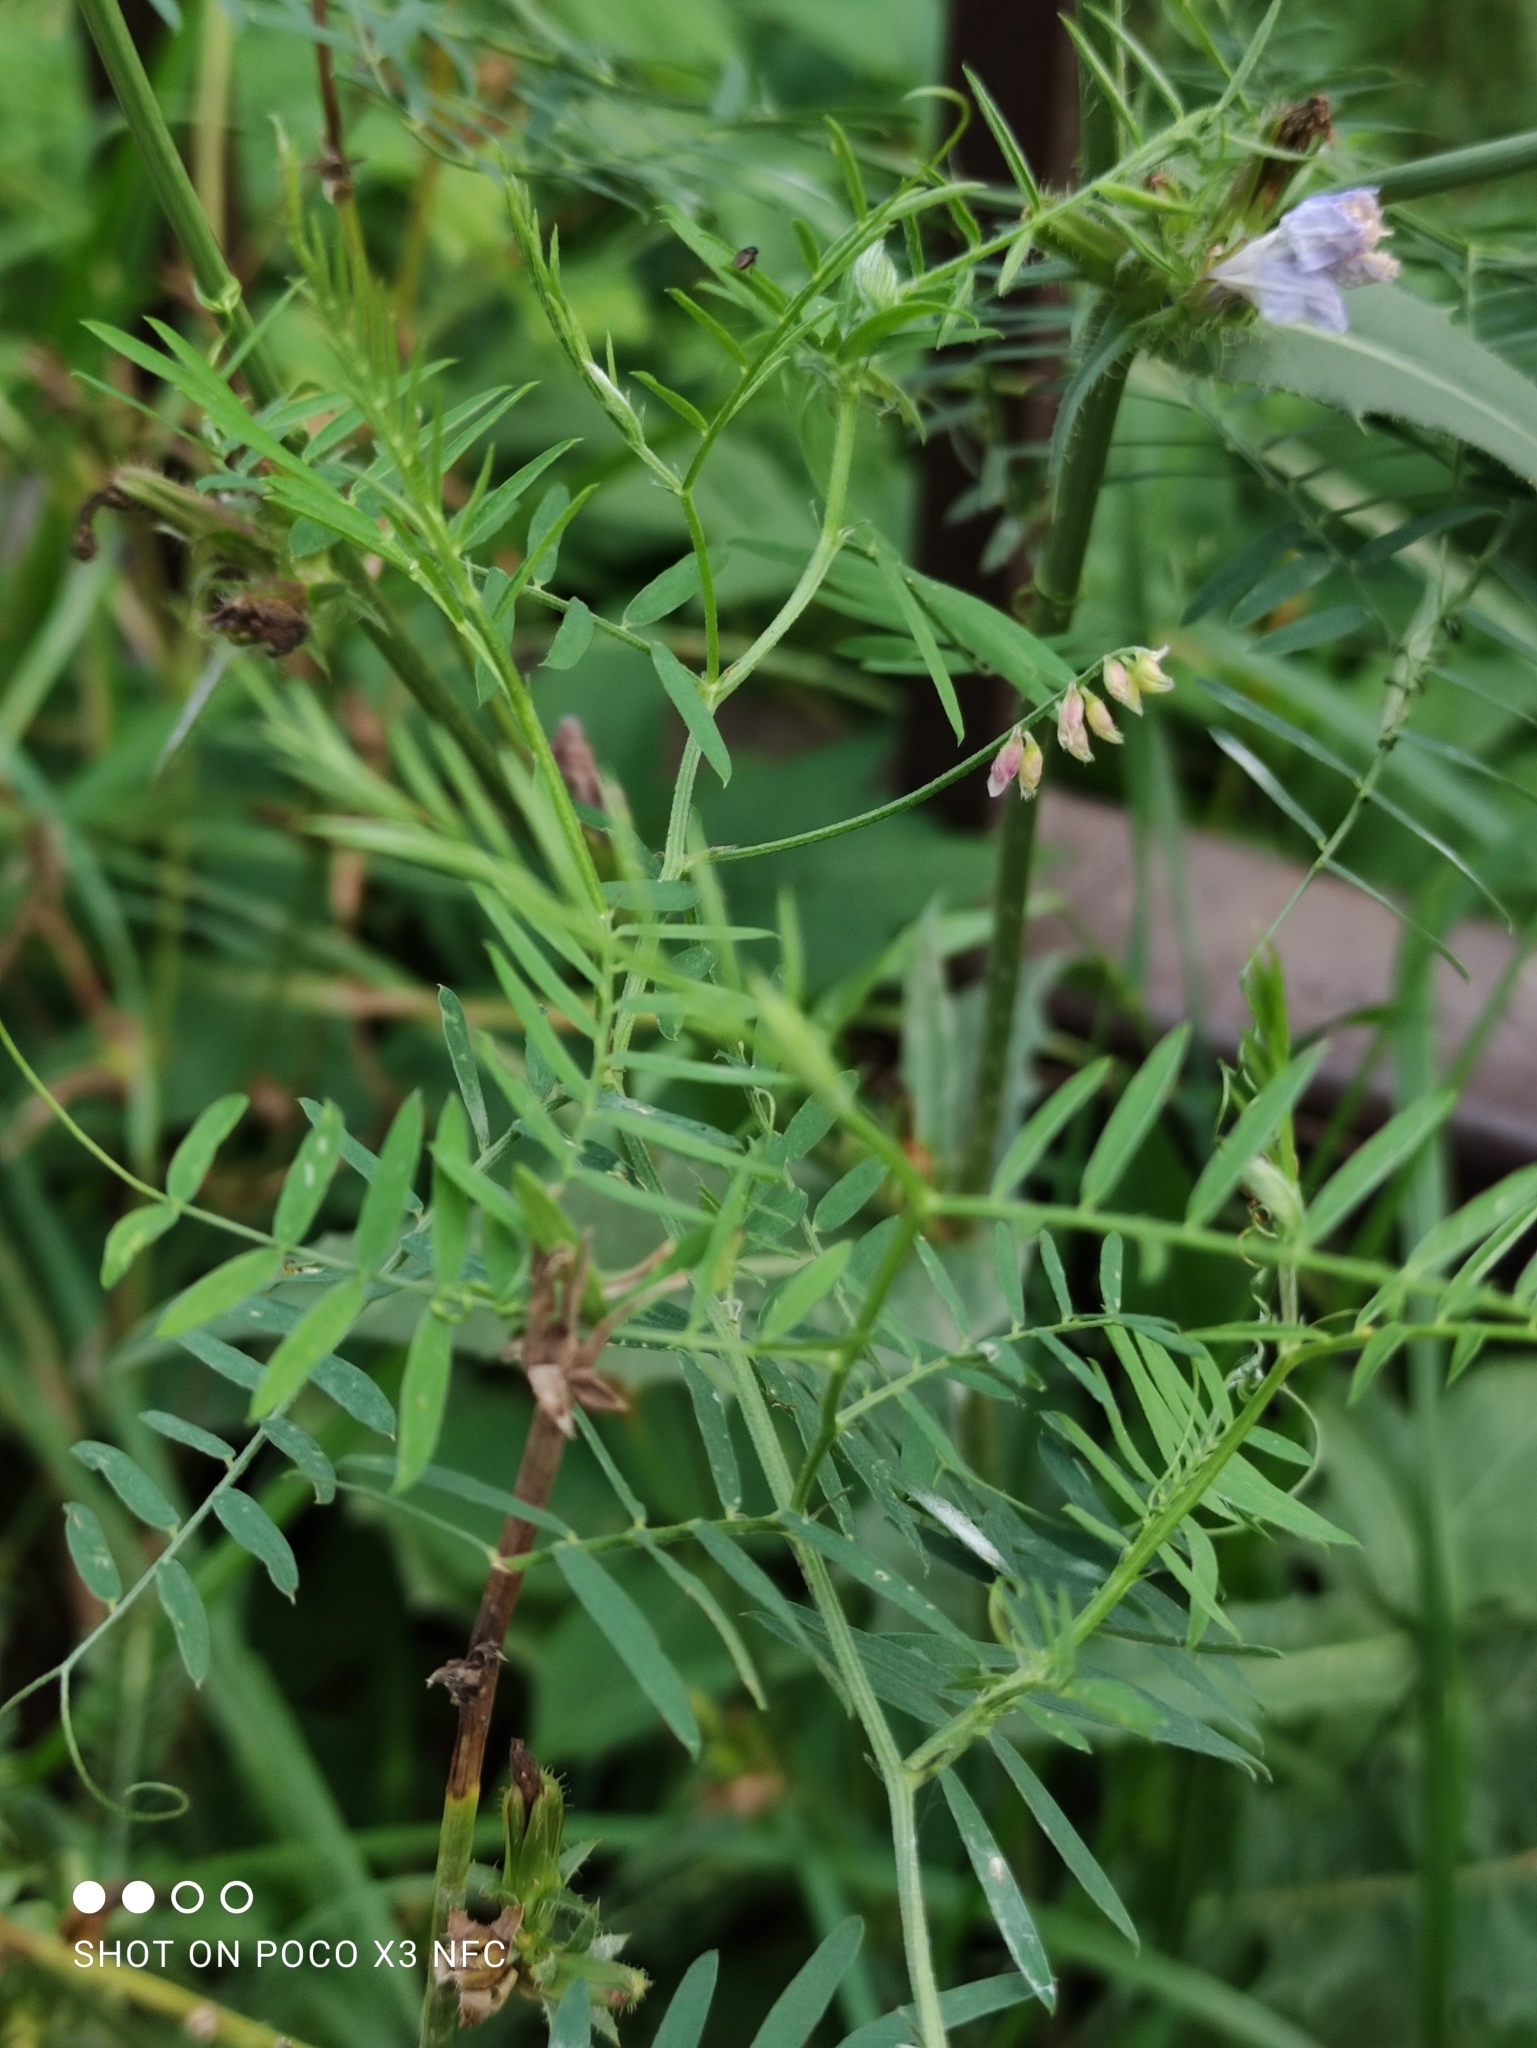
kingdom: Plantae
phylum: Tracheophyta
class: Magnoliopsida
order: Fabales
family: Fabaceae
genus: Vicia
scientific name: Vicia cracca
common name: Bird vetch
